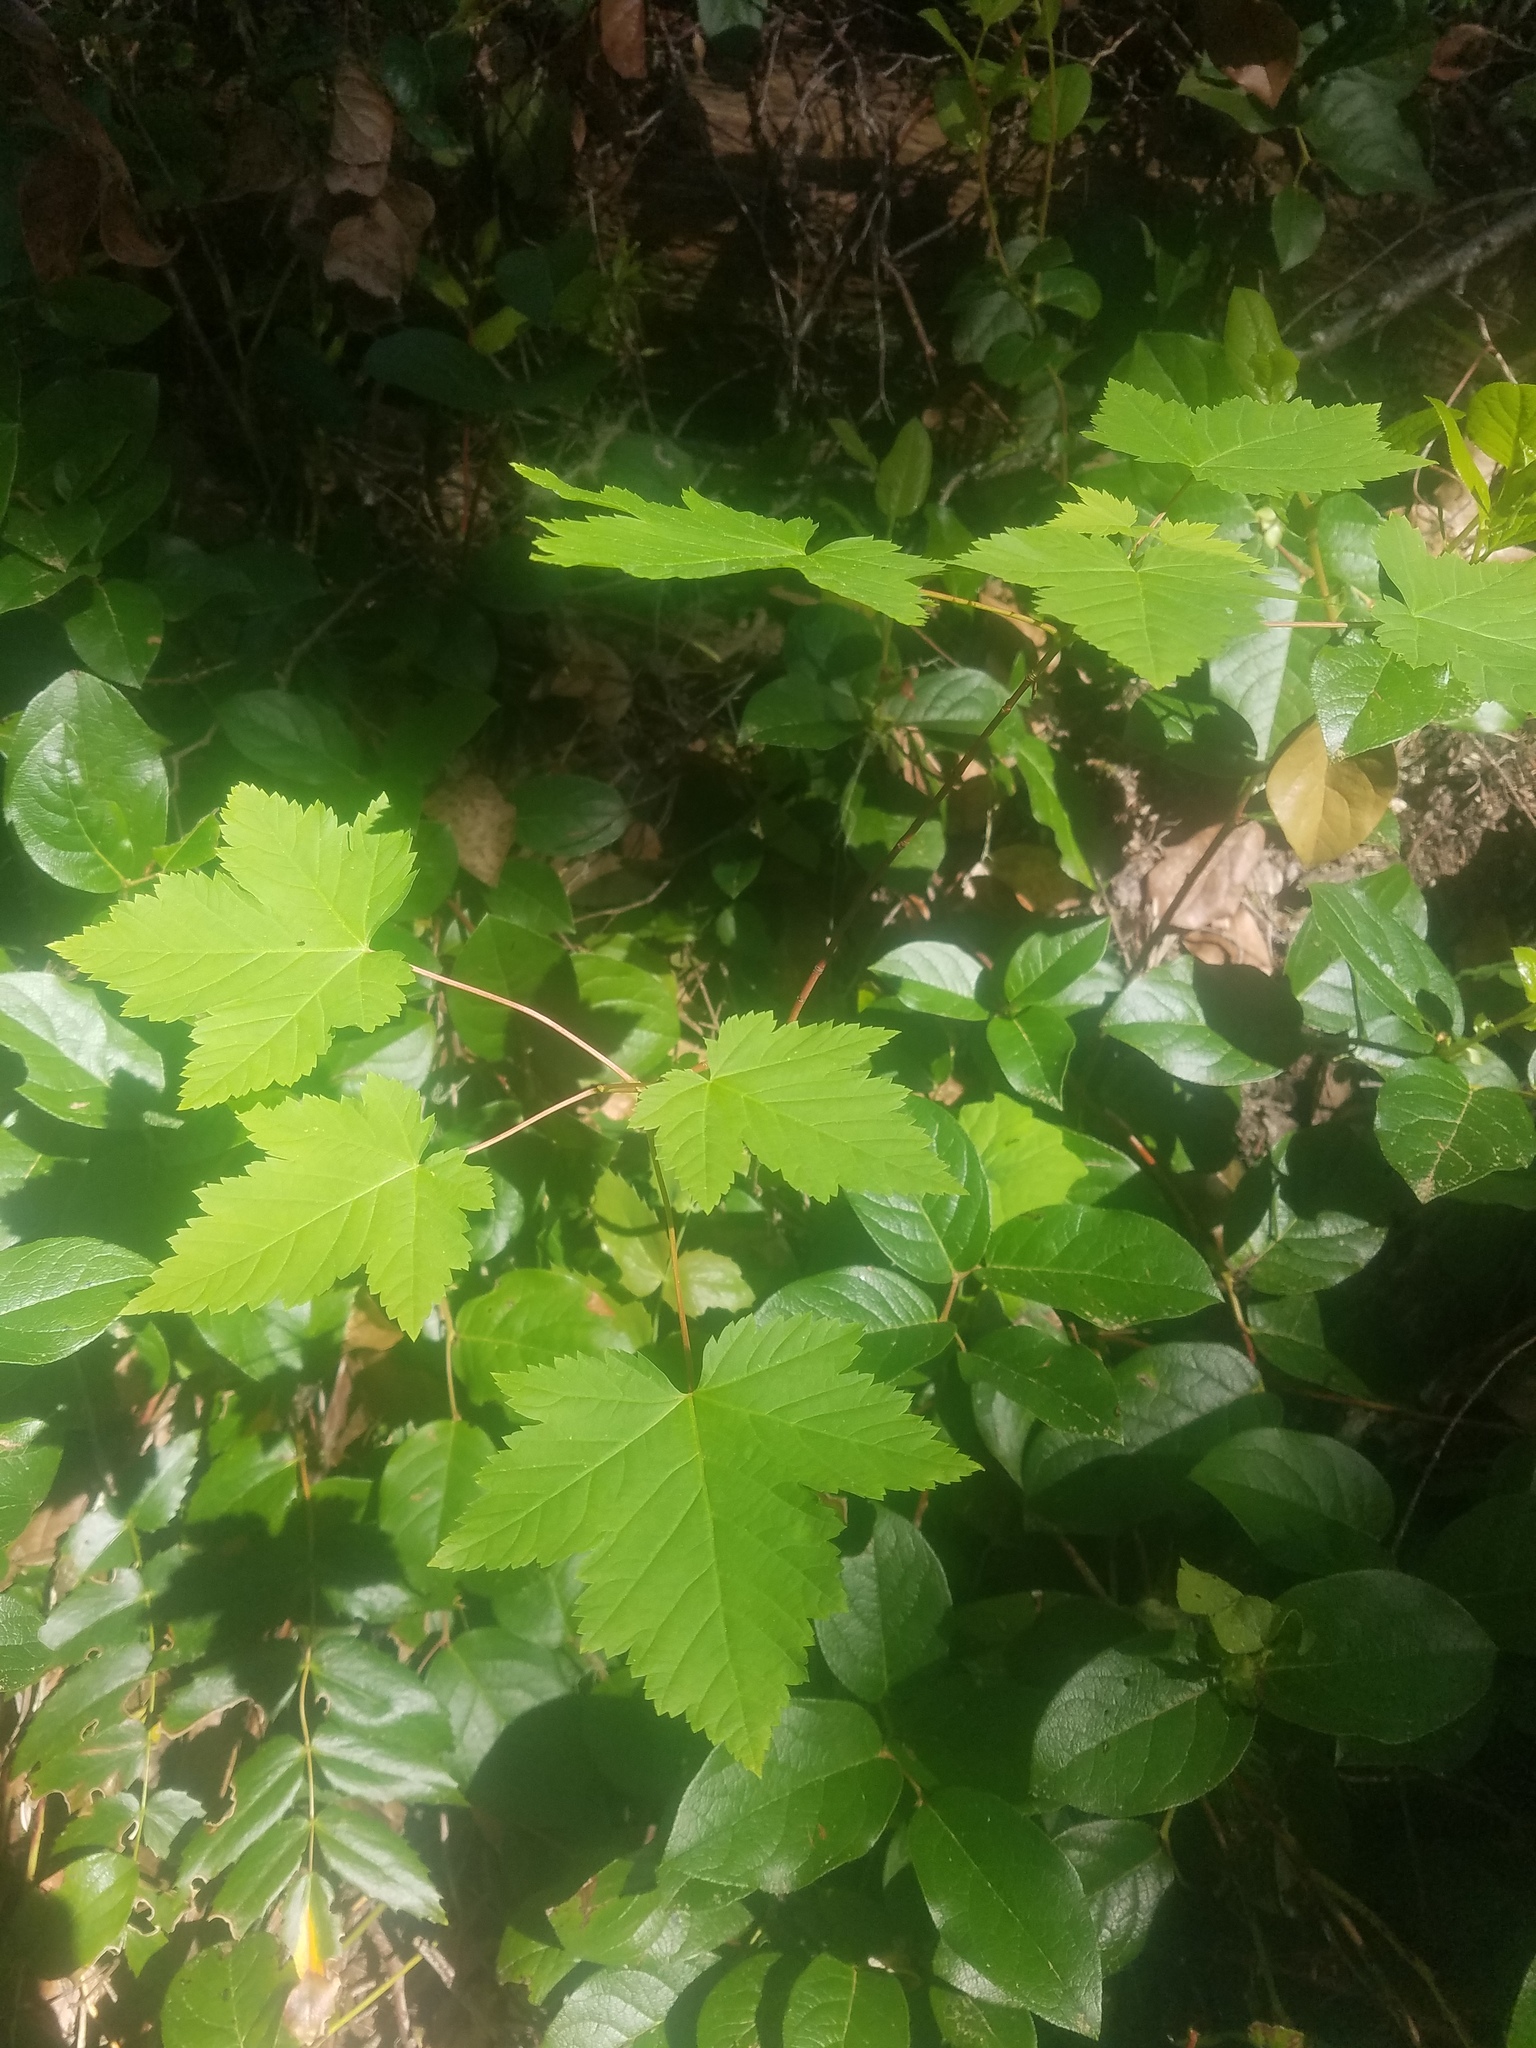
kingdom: Plantae
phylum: Tracheophyta
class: Magnoliopsida
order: Sapindales
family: Sapindaceae
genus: Acer
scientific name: Acer glabrum
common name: Rocky mountain maple
